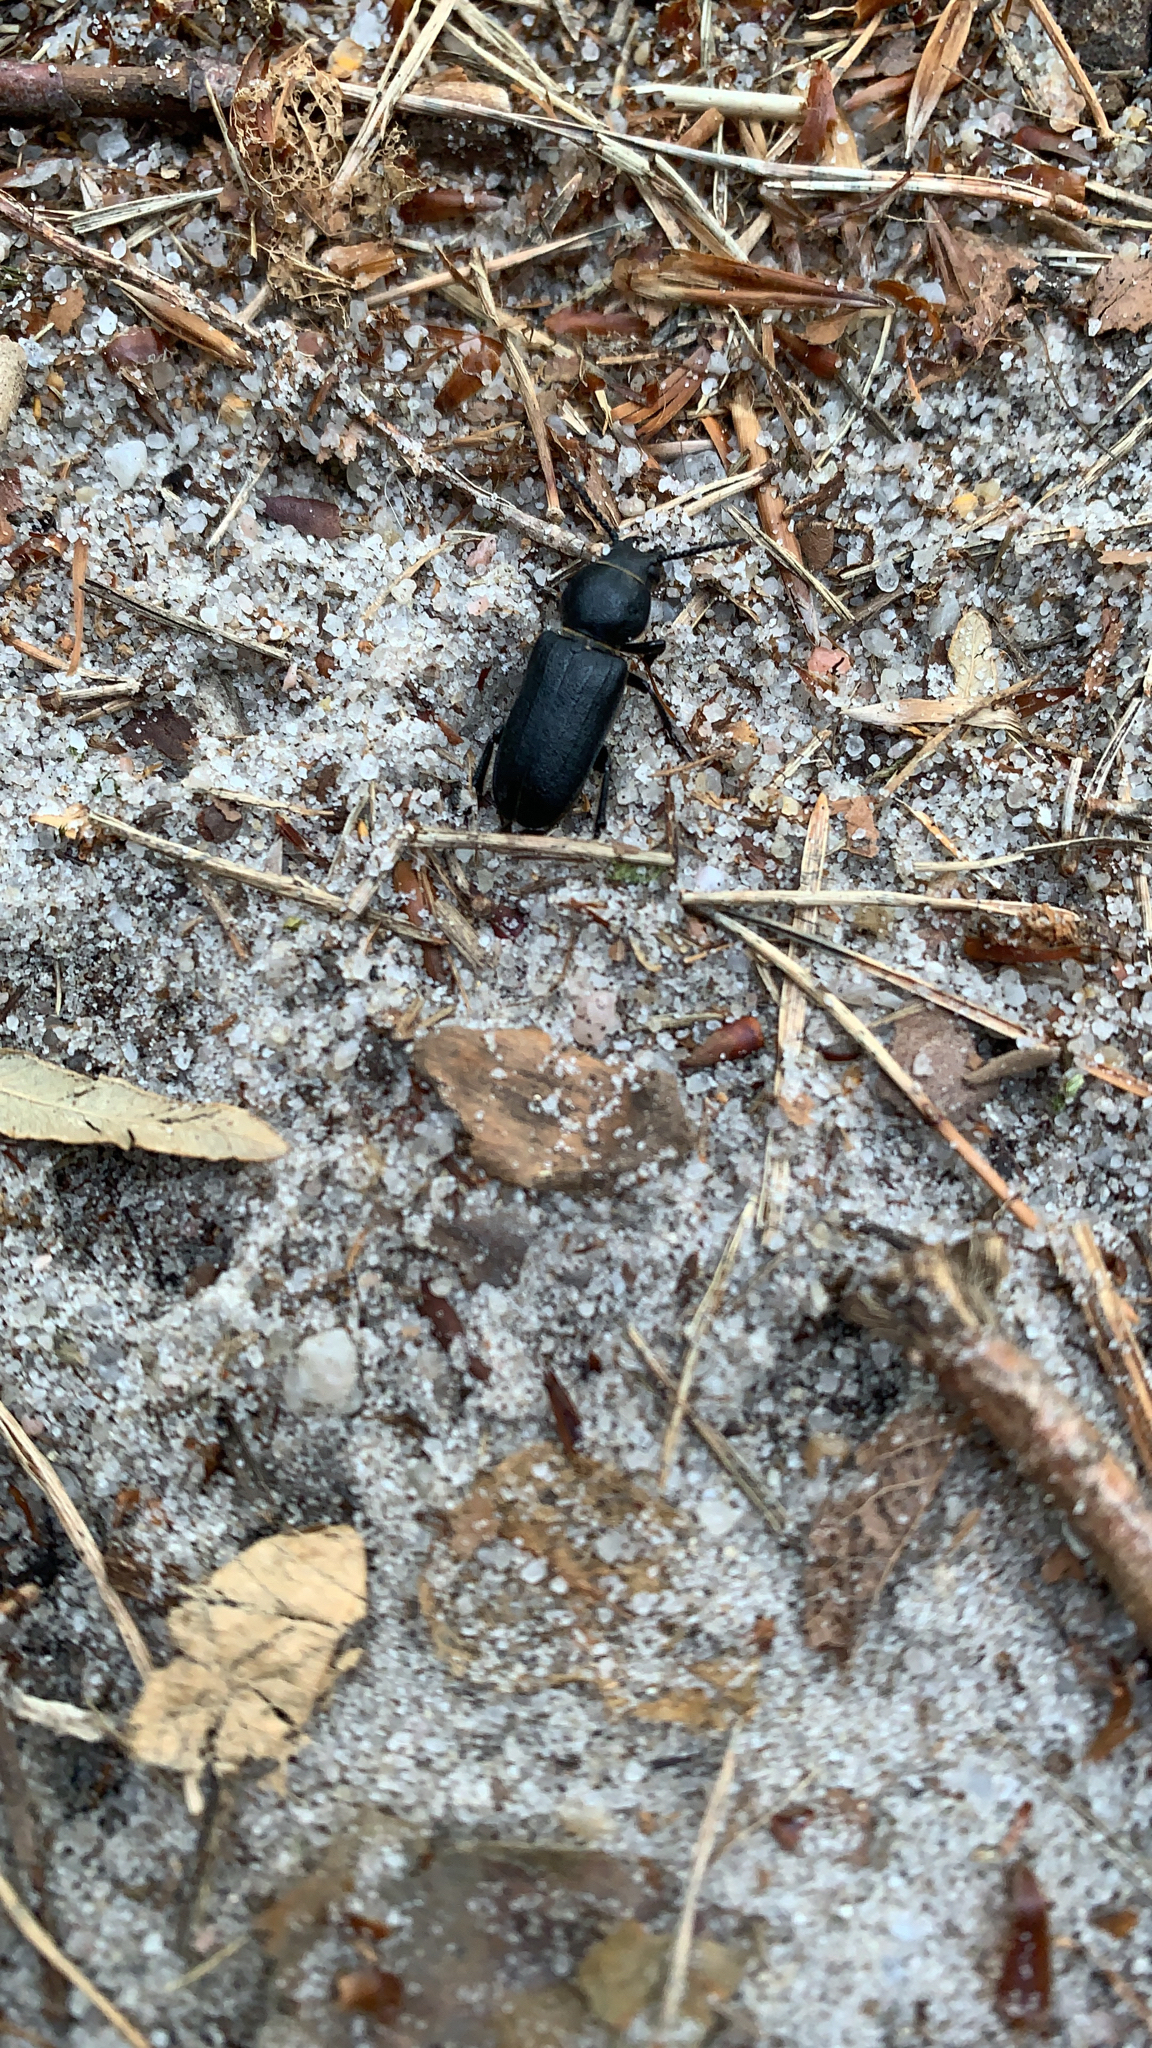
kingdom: Animalia
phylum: Arthropoda
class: Insecta
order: Coleoptera
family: Cerambycidae
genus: Spondylis
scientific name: Spondylis buprestoides
